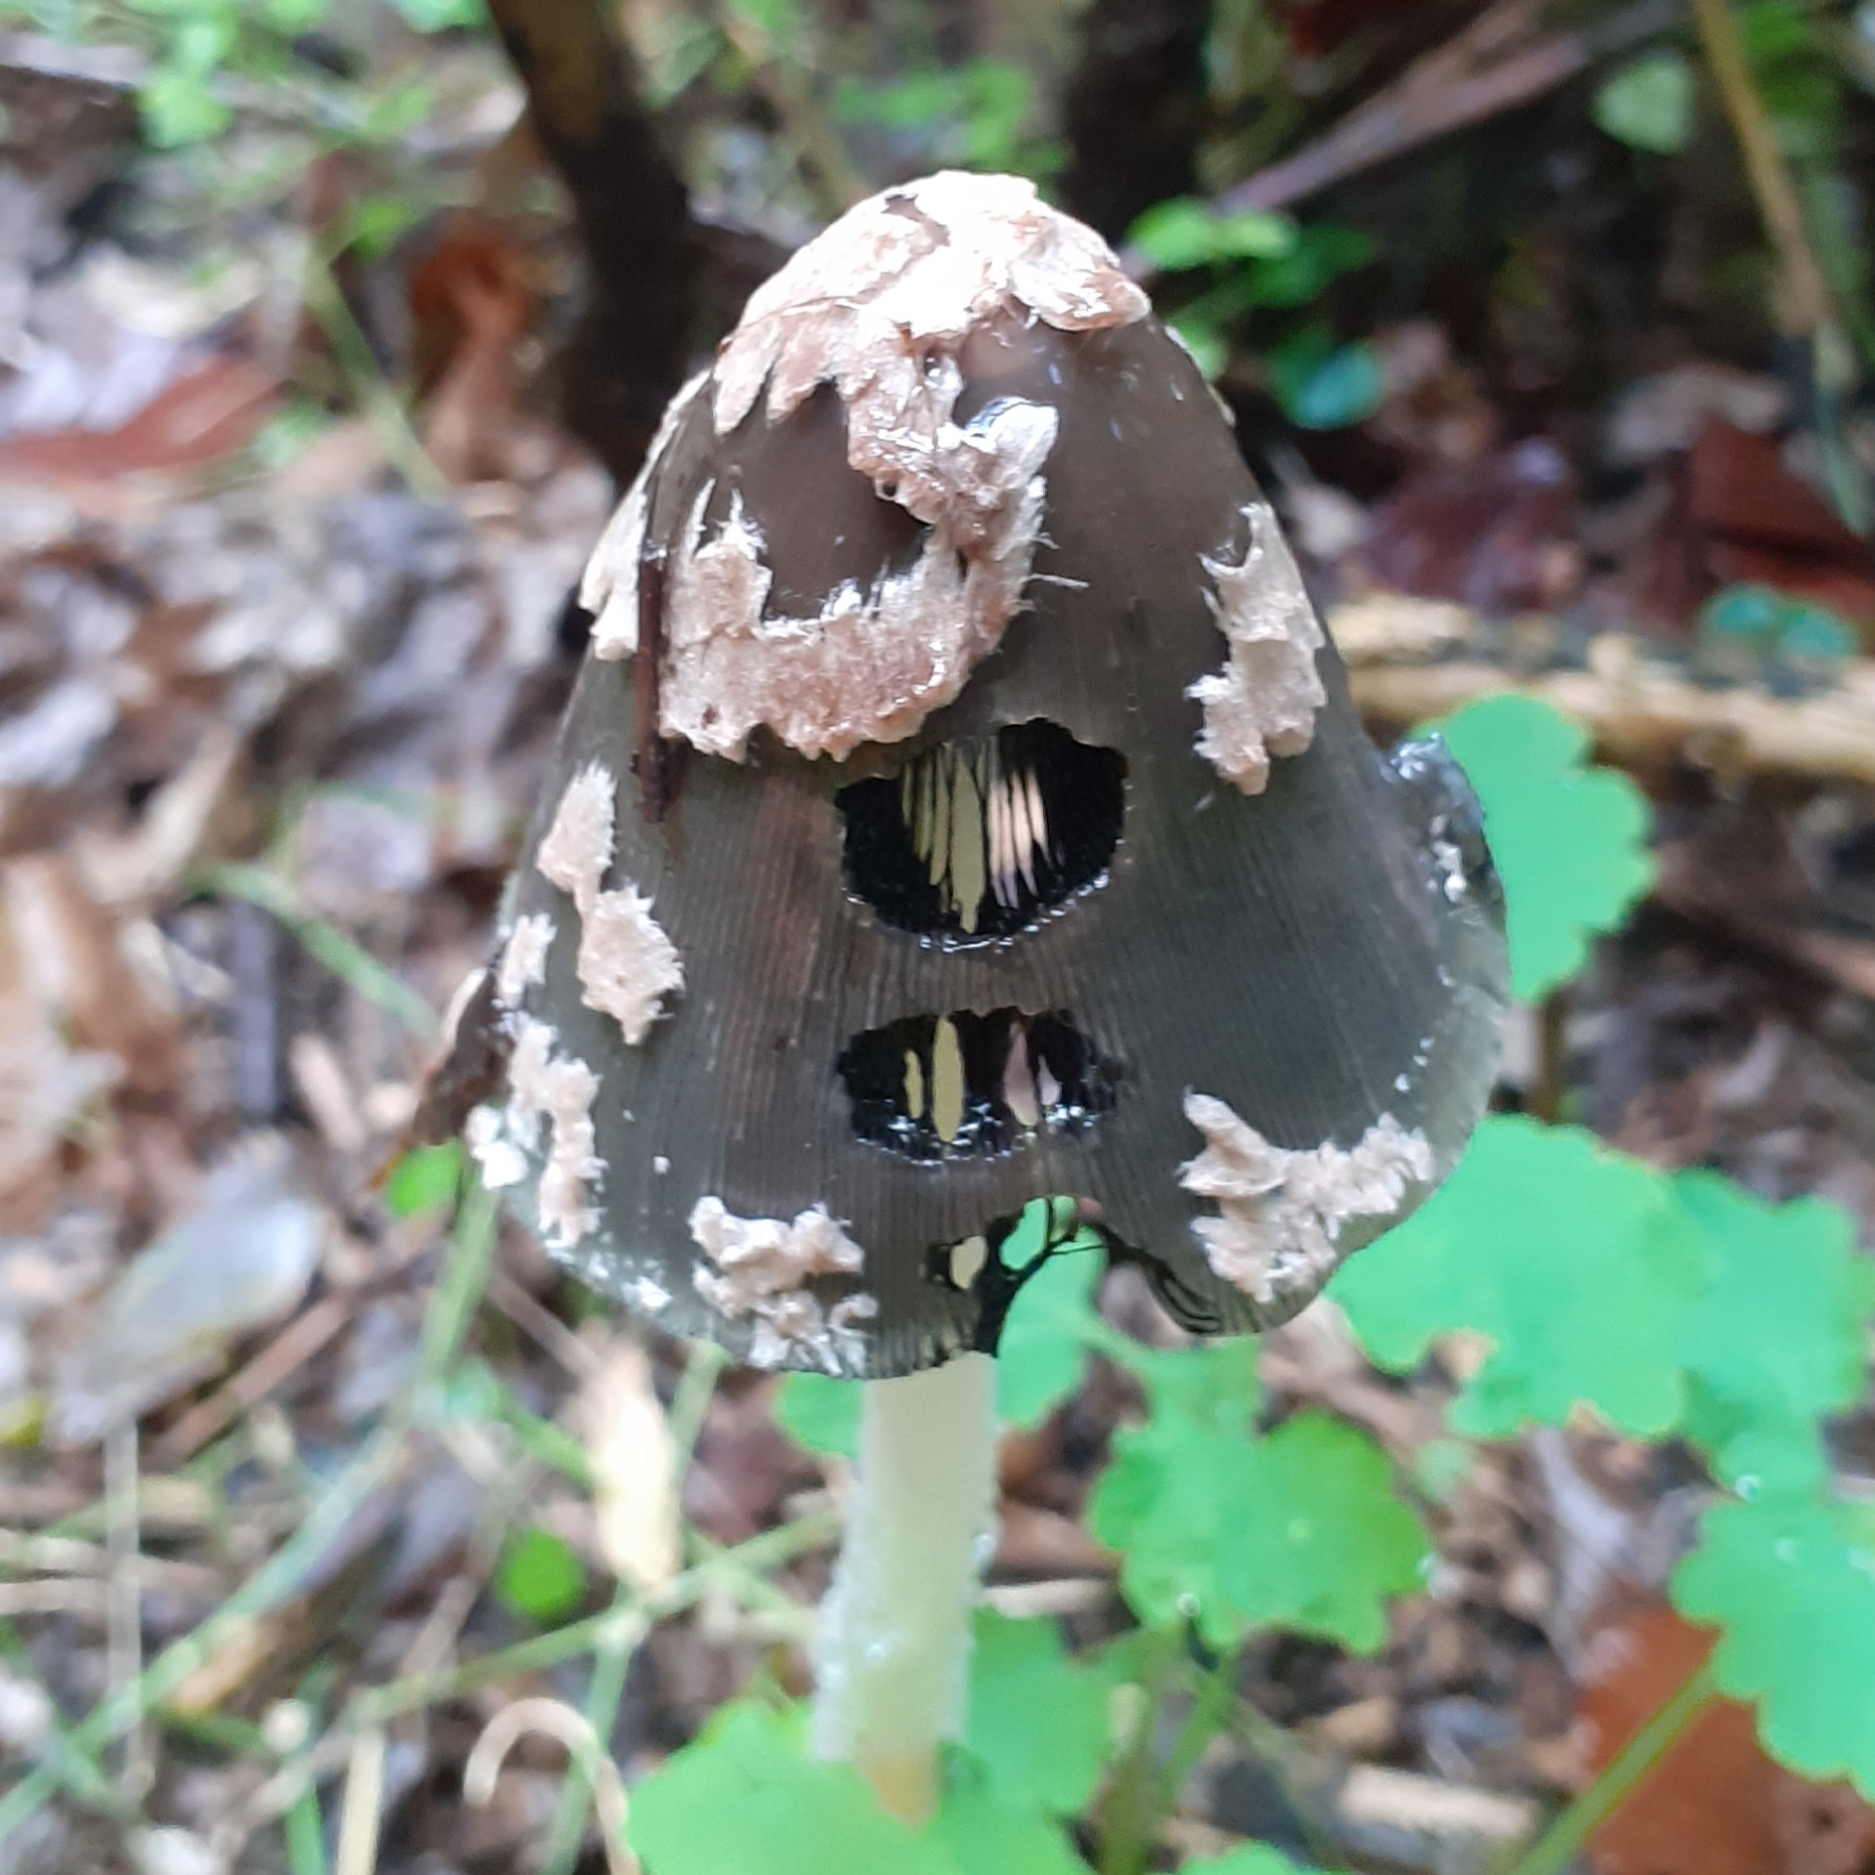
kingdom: Fungi
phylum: Basidiomycota
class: Agaricomycetes
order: Agaricales
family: Psathyrellaceae
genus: Coprinopsis
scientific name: Coprinopsis picacea
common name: Magpie inkcap
